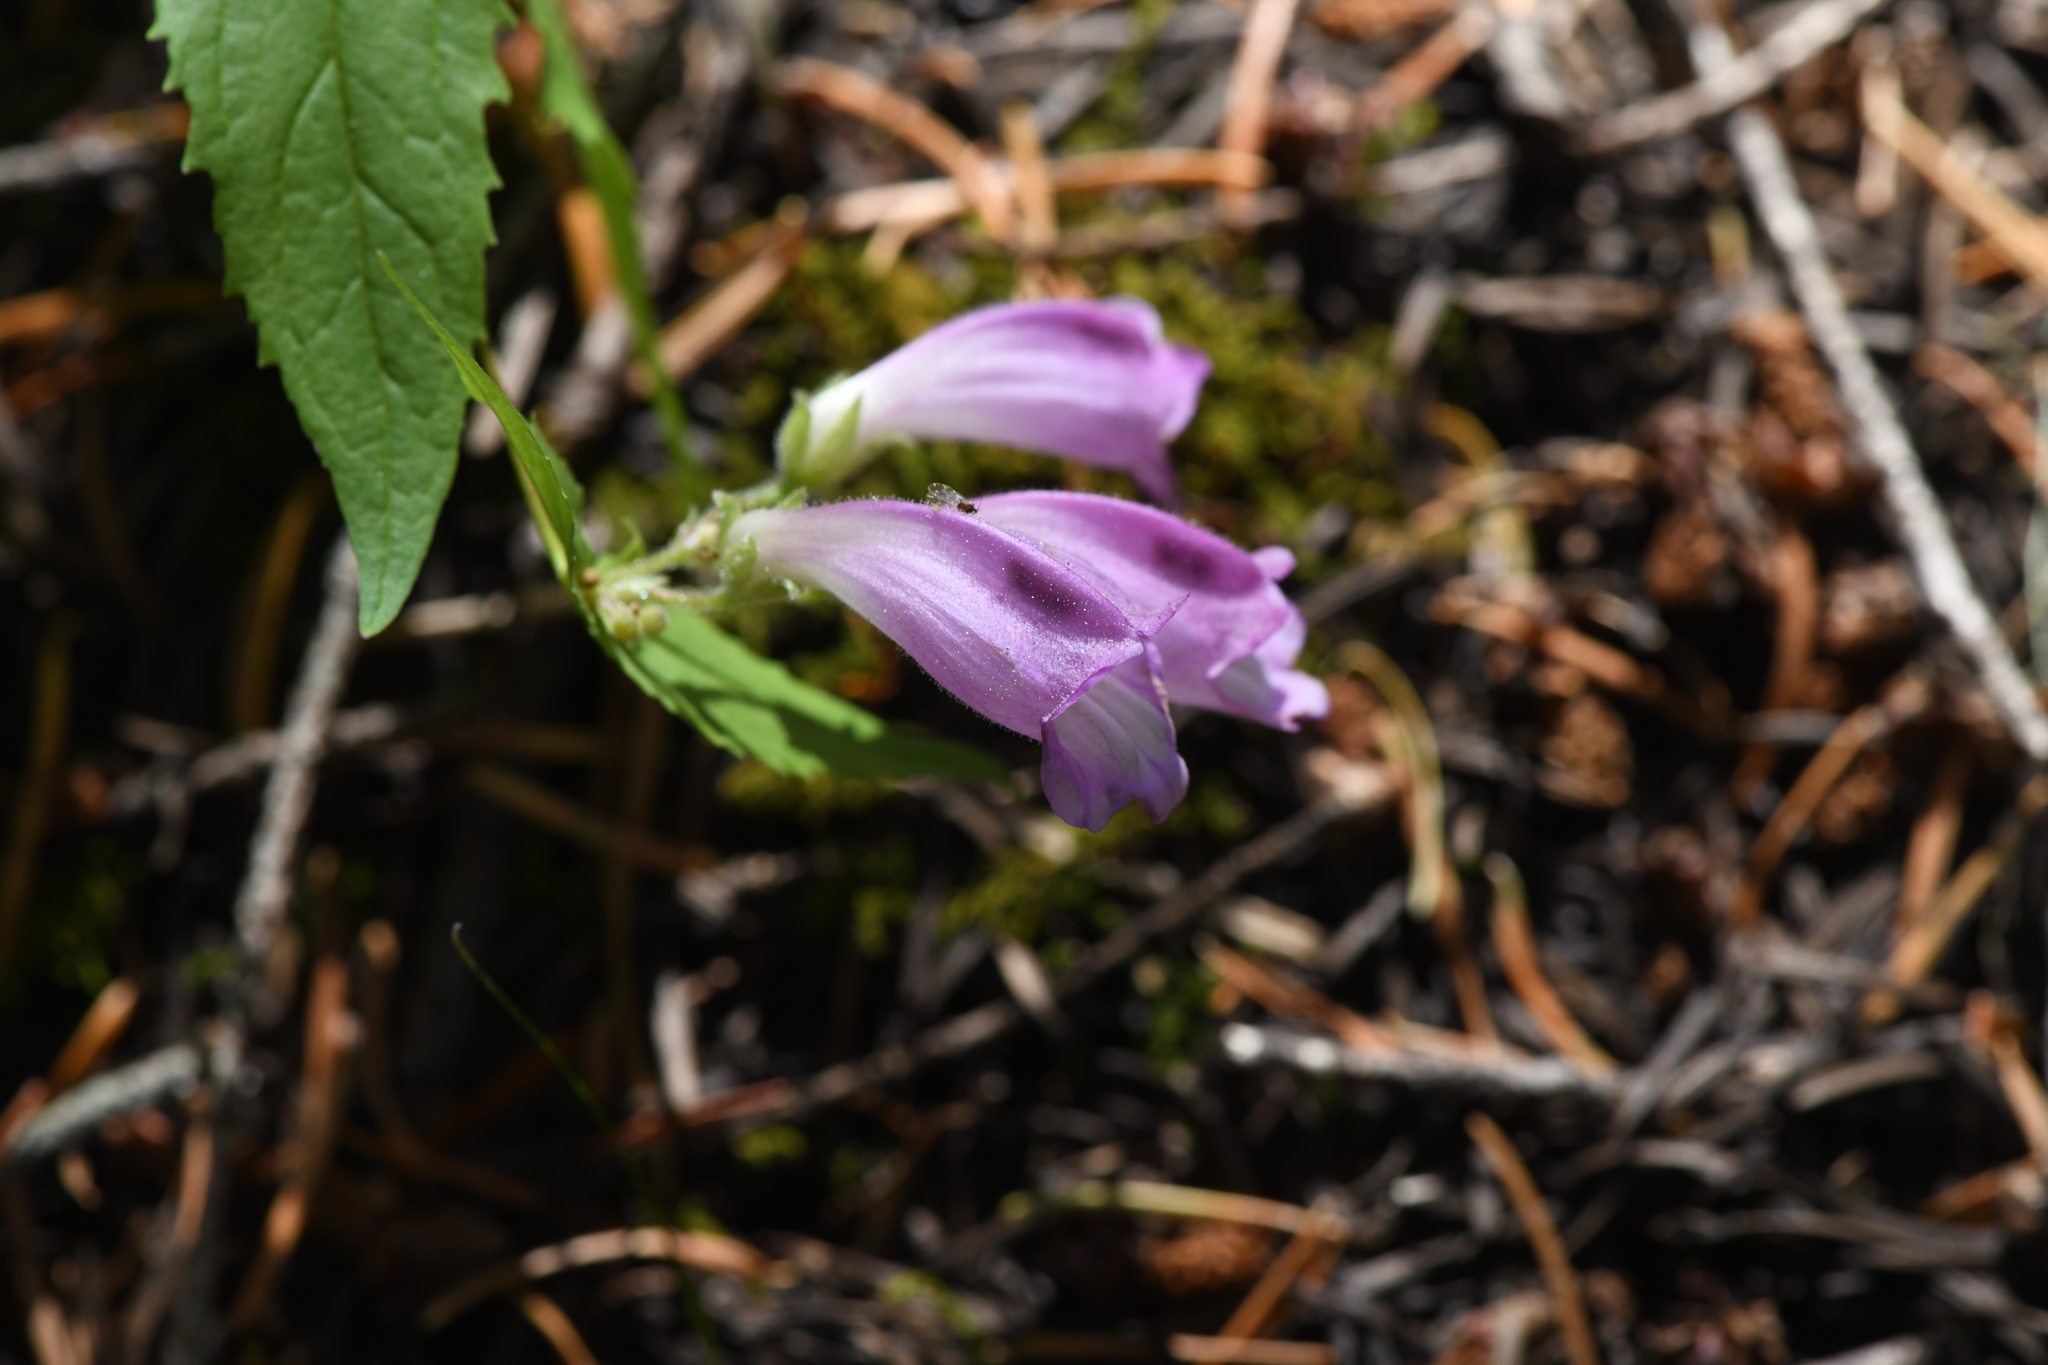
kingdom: Plantae
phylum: Tracheophyta
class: Magnoliopsida
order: Lamiales
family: Plantaginaceae
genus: Nothochelone
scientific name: Nothochelone nemorosa
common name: Woodland beardtongue
